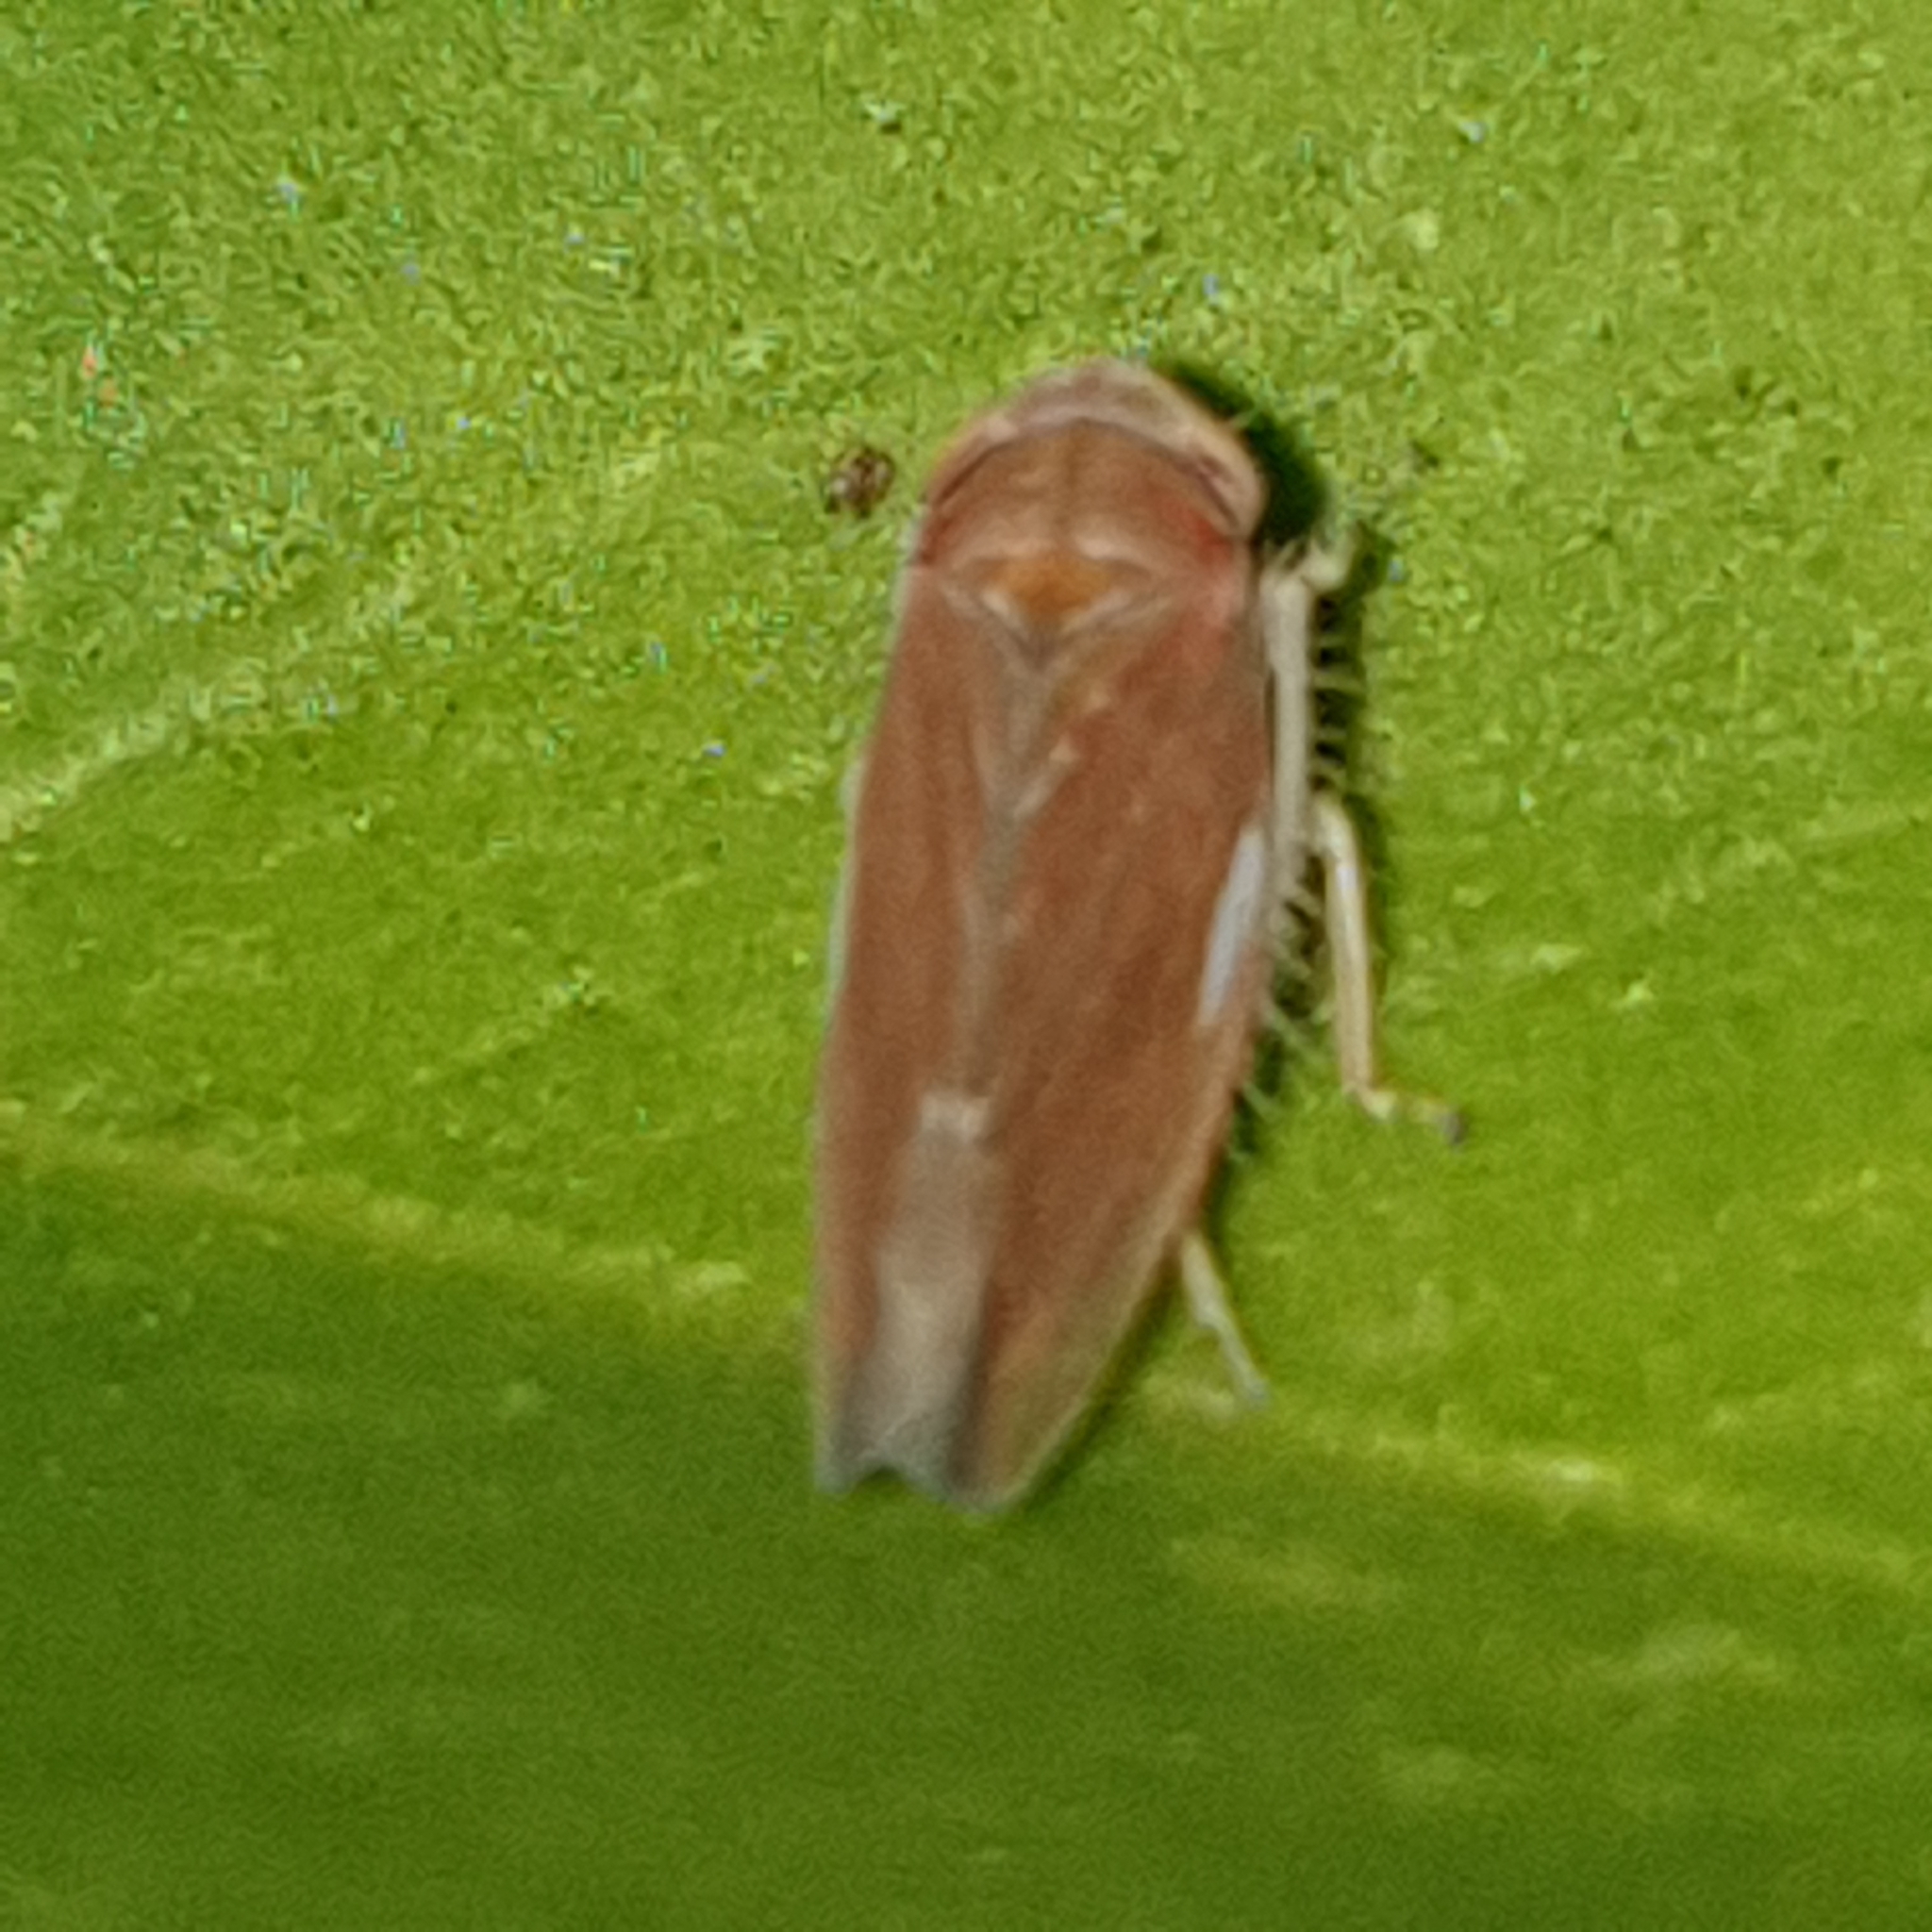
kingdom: Animalia
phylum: Arthropoda
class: Insecta
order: Hemiptera
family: Cicadellidae
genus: Idiodonus
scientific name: Idiodonus cruentatus
